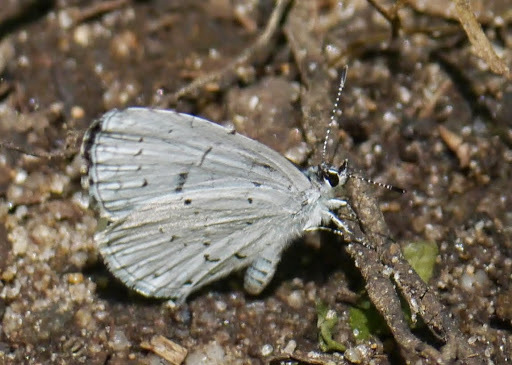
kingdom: Animalia
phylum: Arthropoda
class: Insecta
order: Lepidoptera
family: Lycaenidae
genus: Cyaniris
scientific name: Cyaniris neglecta
